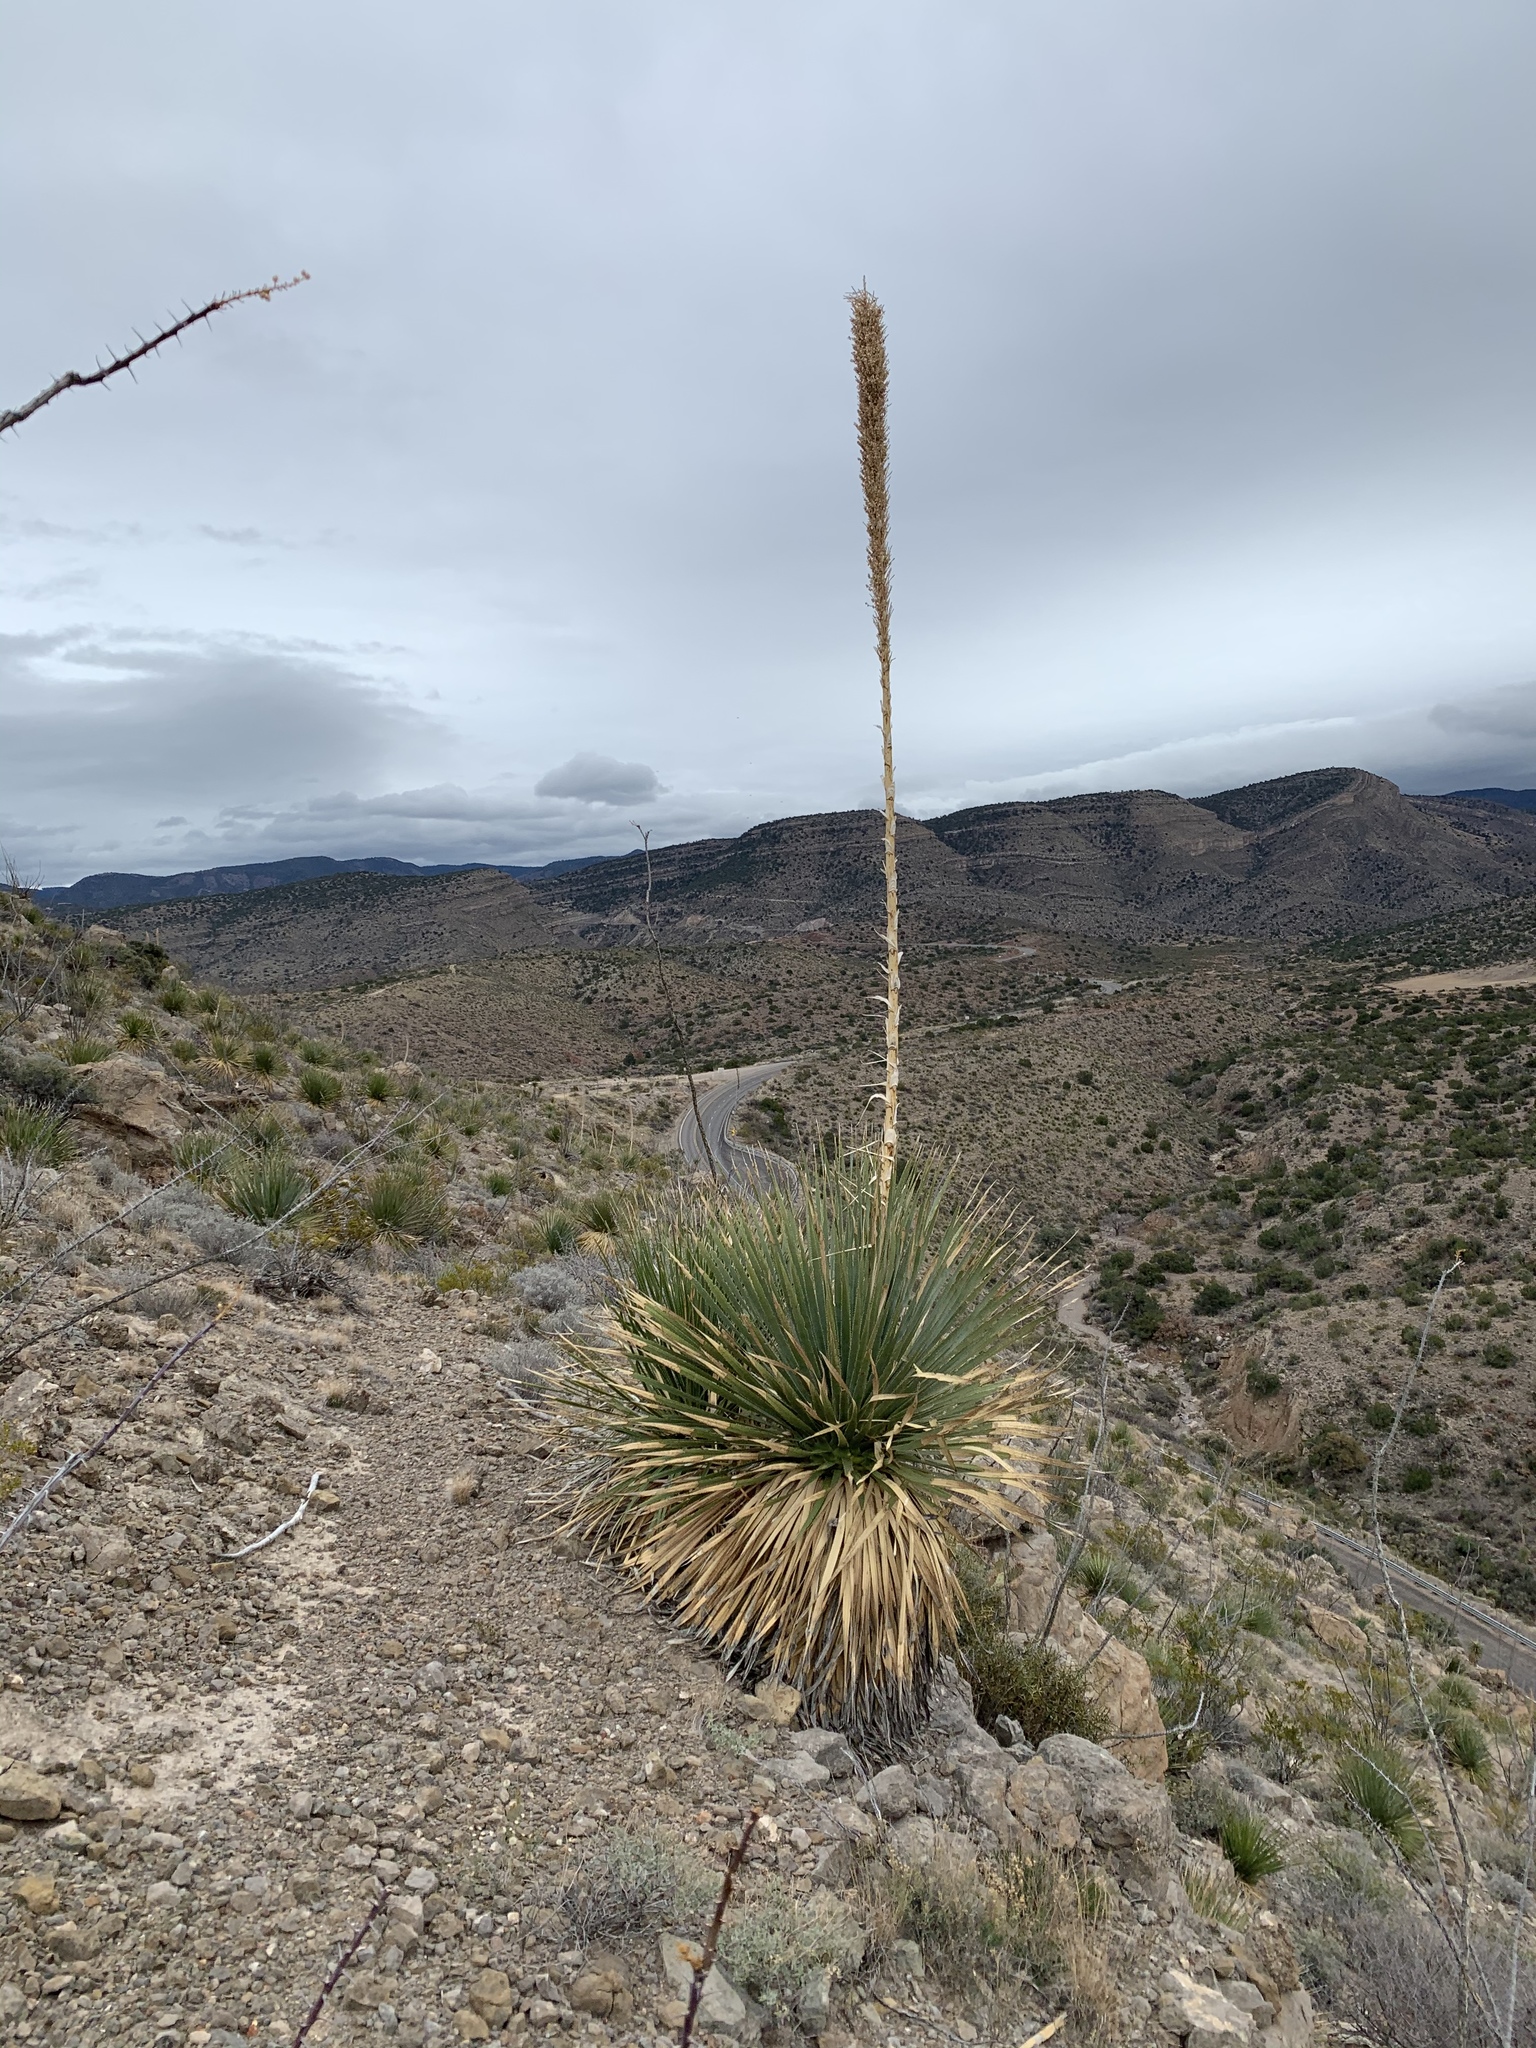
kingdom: Plantae
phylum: Tracheophyta
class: Liliopsida
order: Asparagales
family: Asparagaceae
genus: Dasylirion
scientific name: Dasylirion wheeleri
